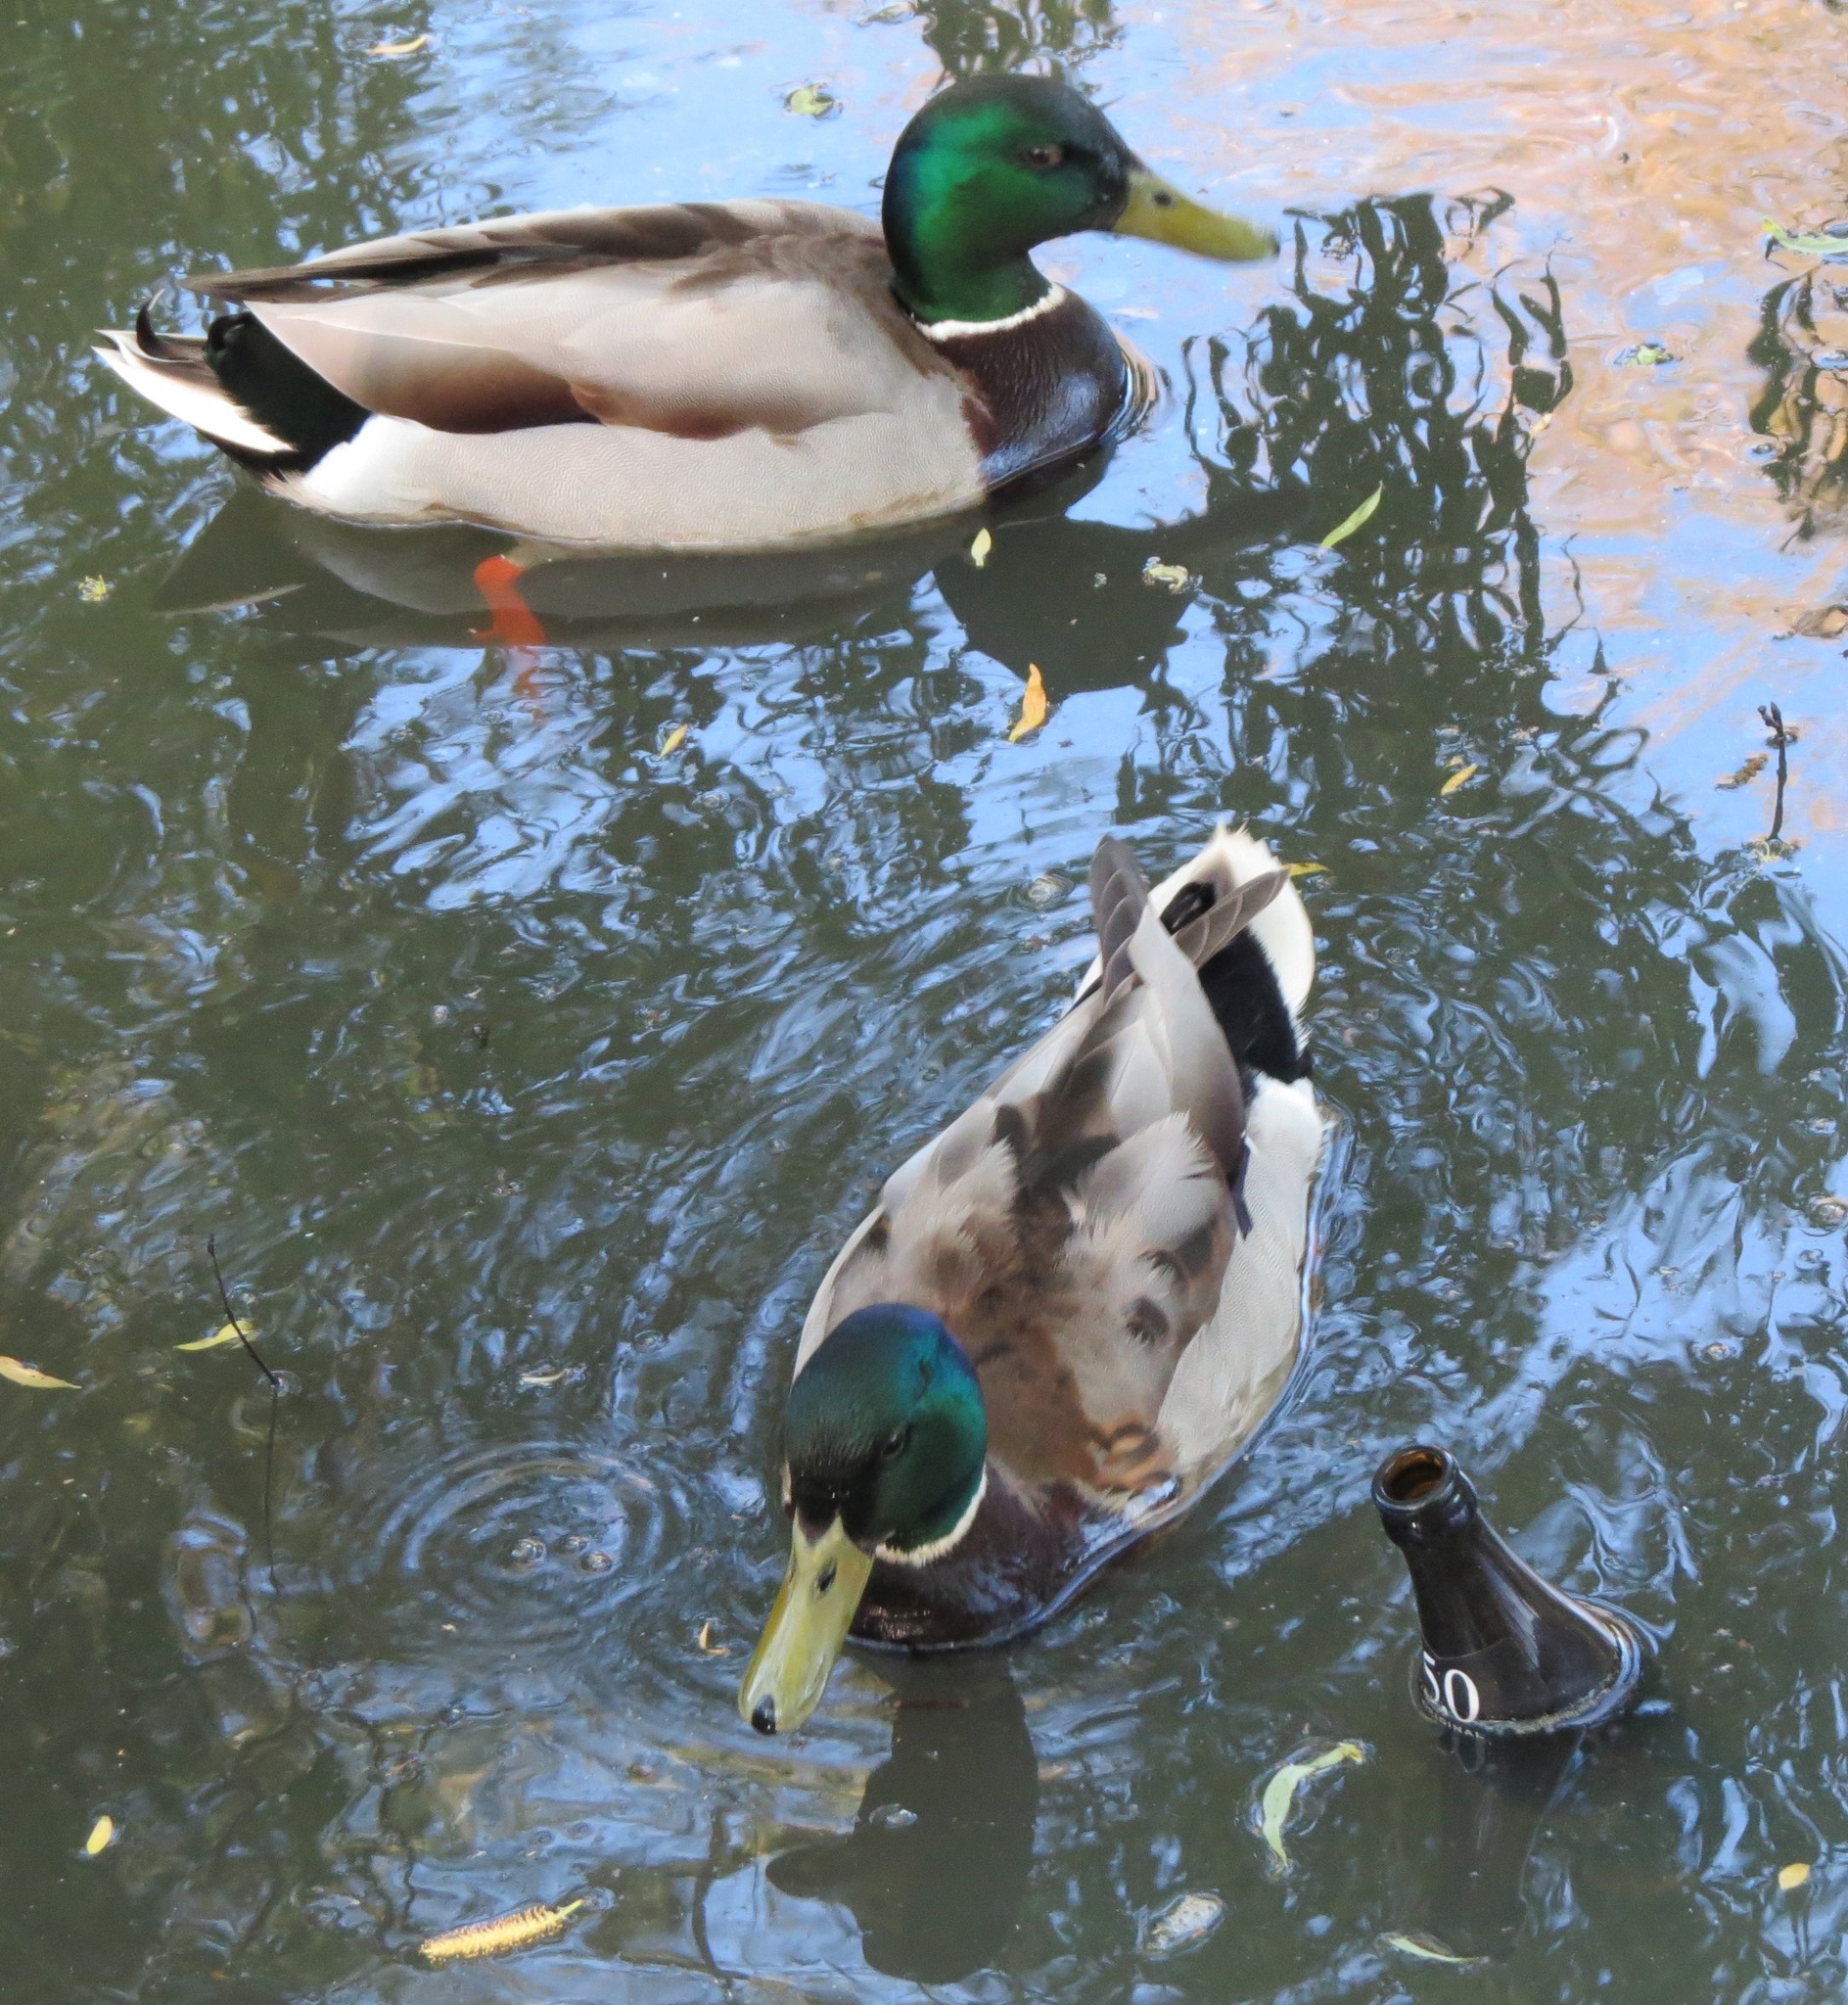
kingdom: Animalia
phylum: Chordata
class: Aves
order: Anseriformes
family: Anatidae
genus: Anas
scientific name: Anas platyrhynchos
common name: Mallard
